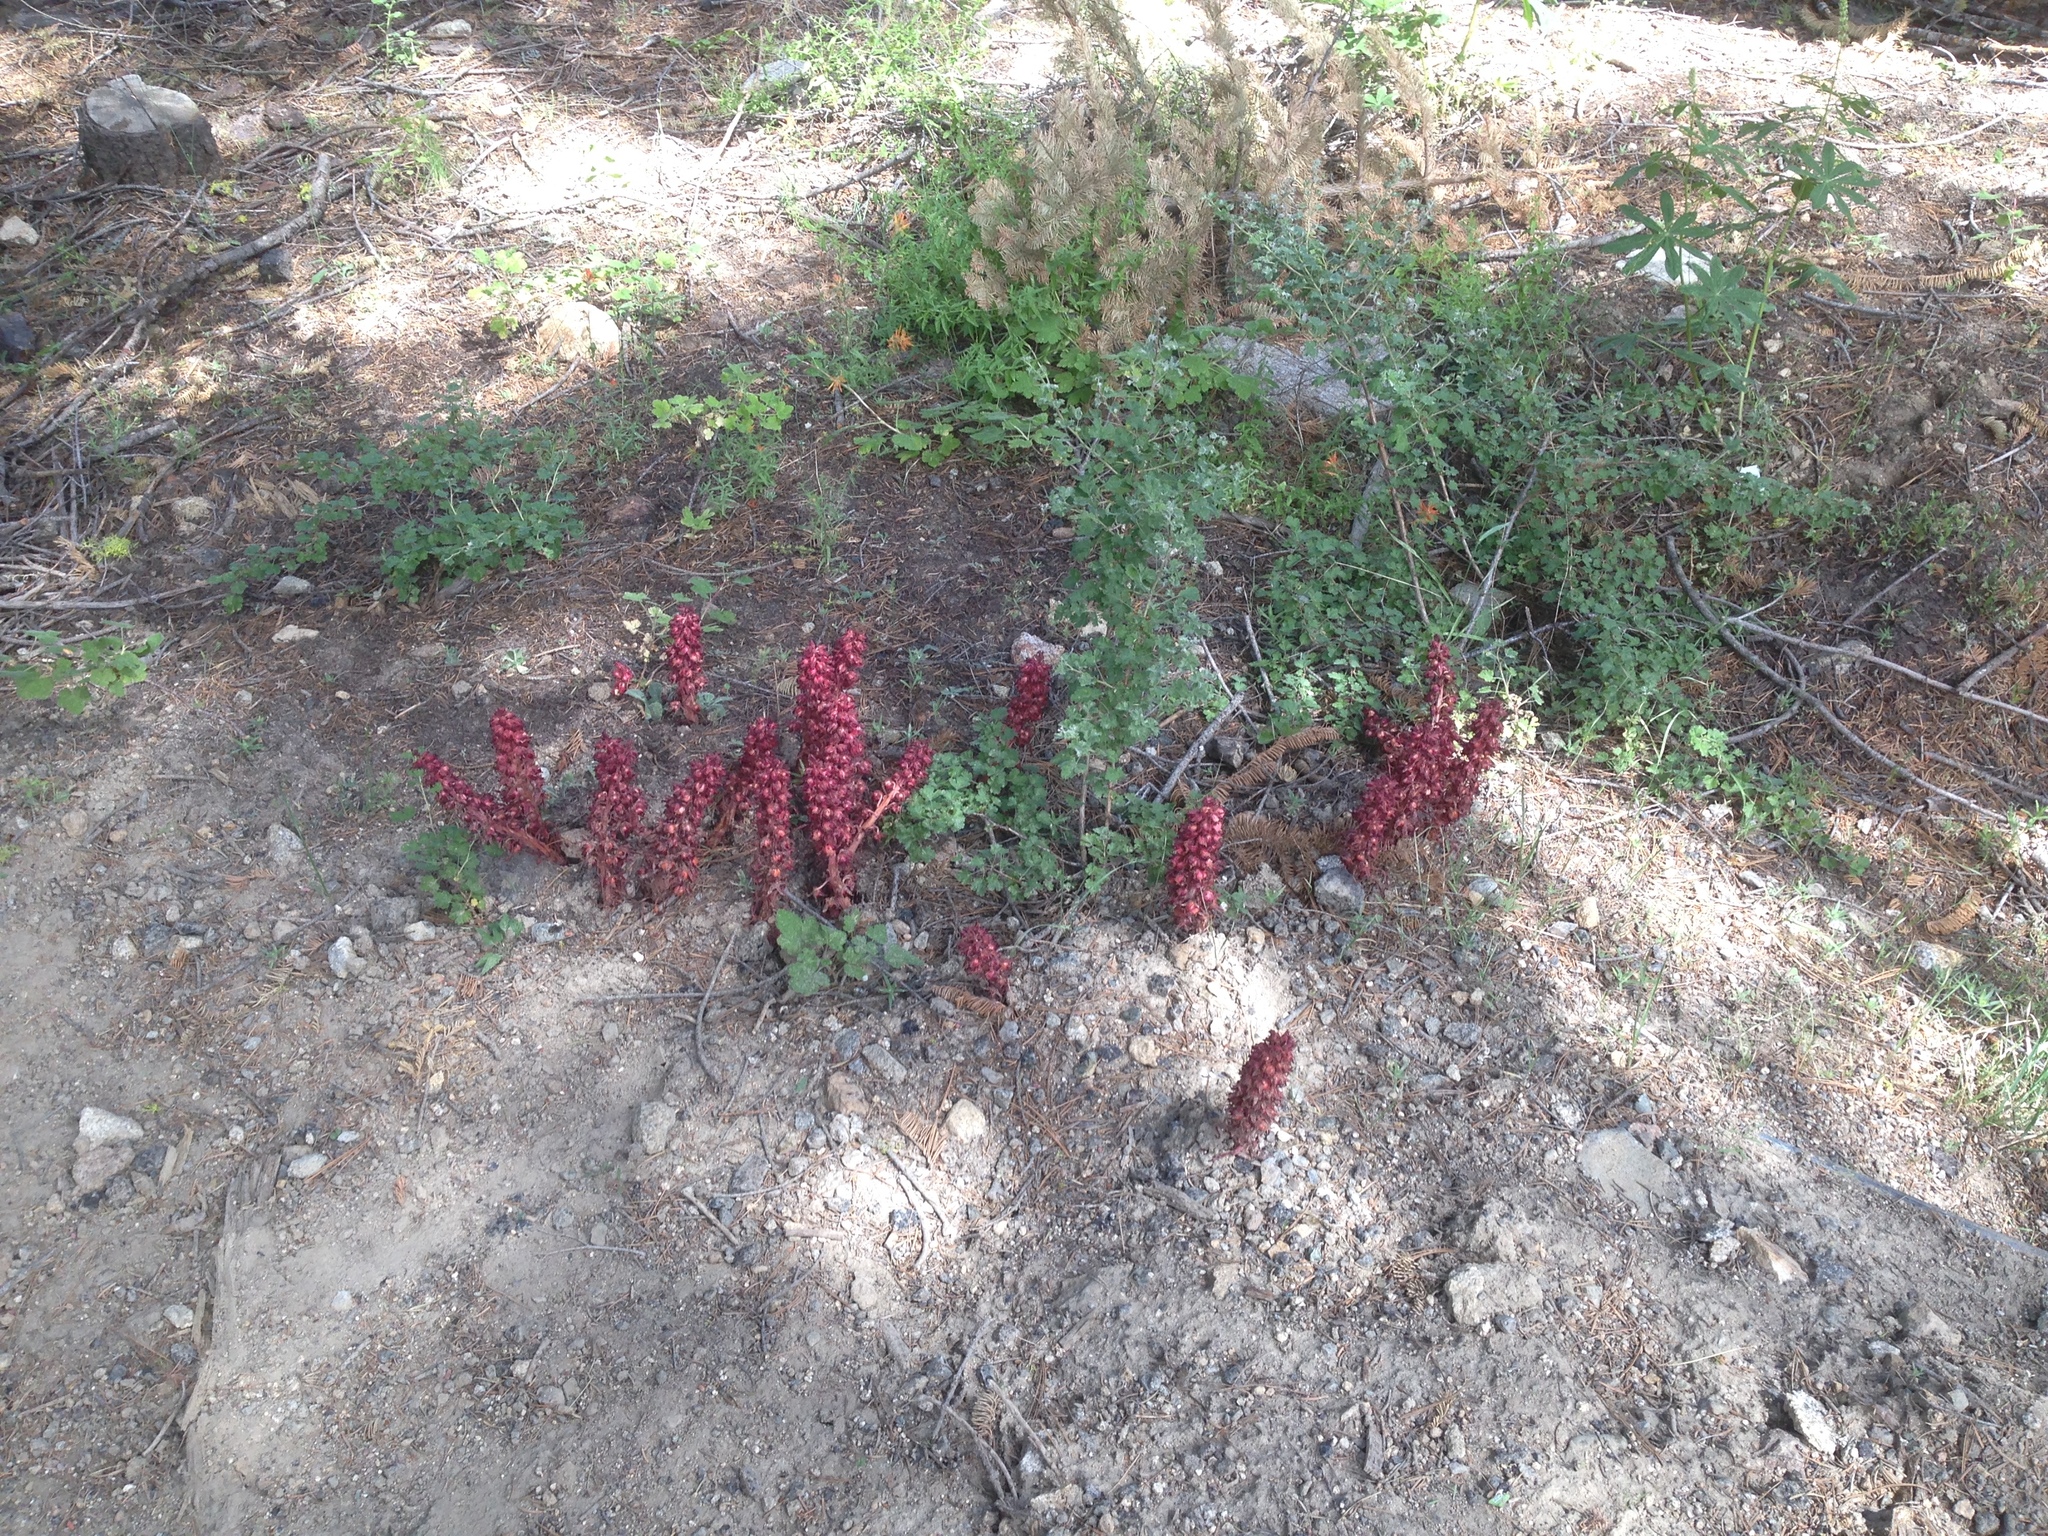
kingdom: Plantae
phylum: Tracheophyta
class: Magnoliopsida
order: Ericales
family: Ericaceae
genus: Sarcodes
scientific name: Sarcodes sanguinea
